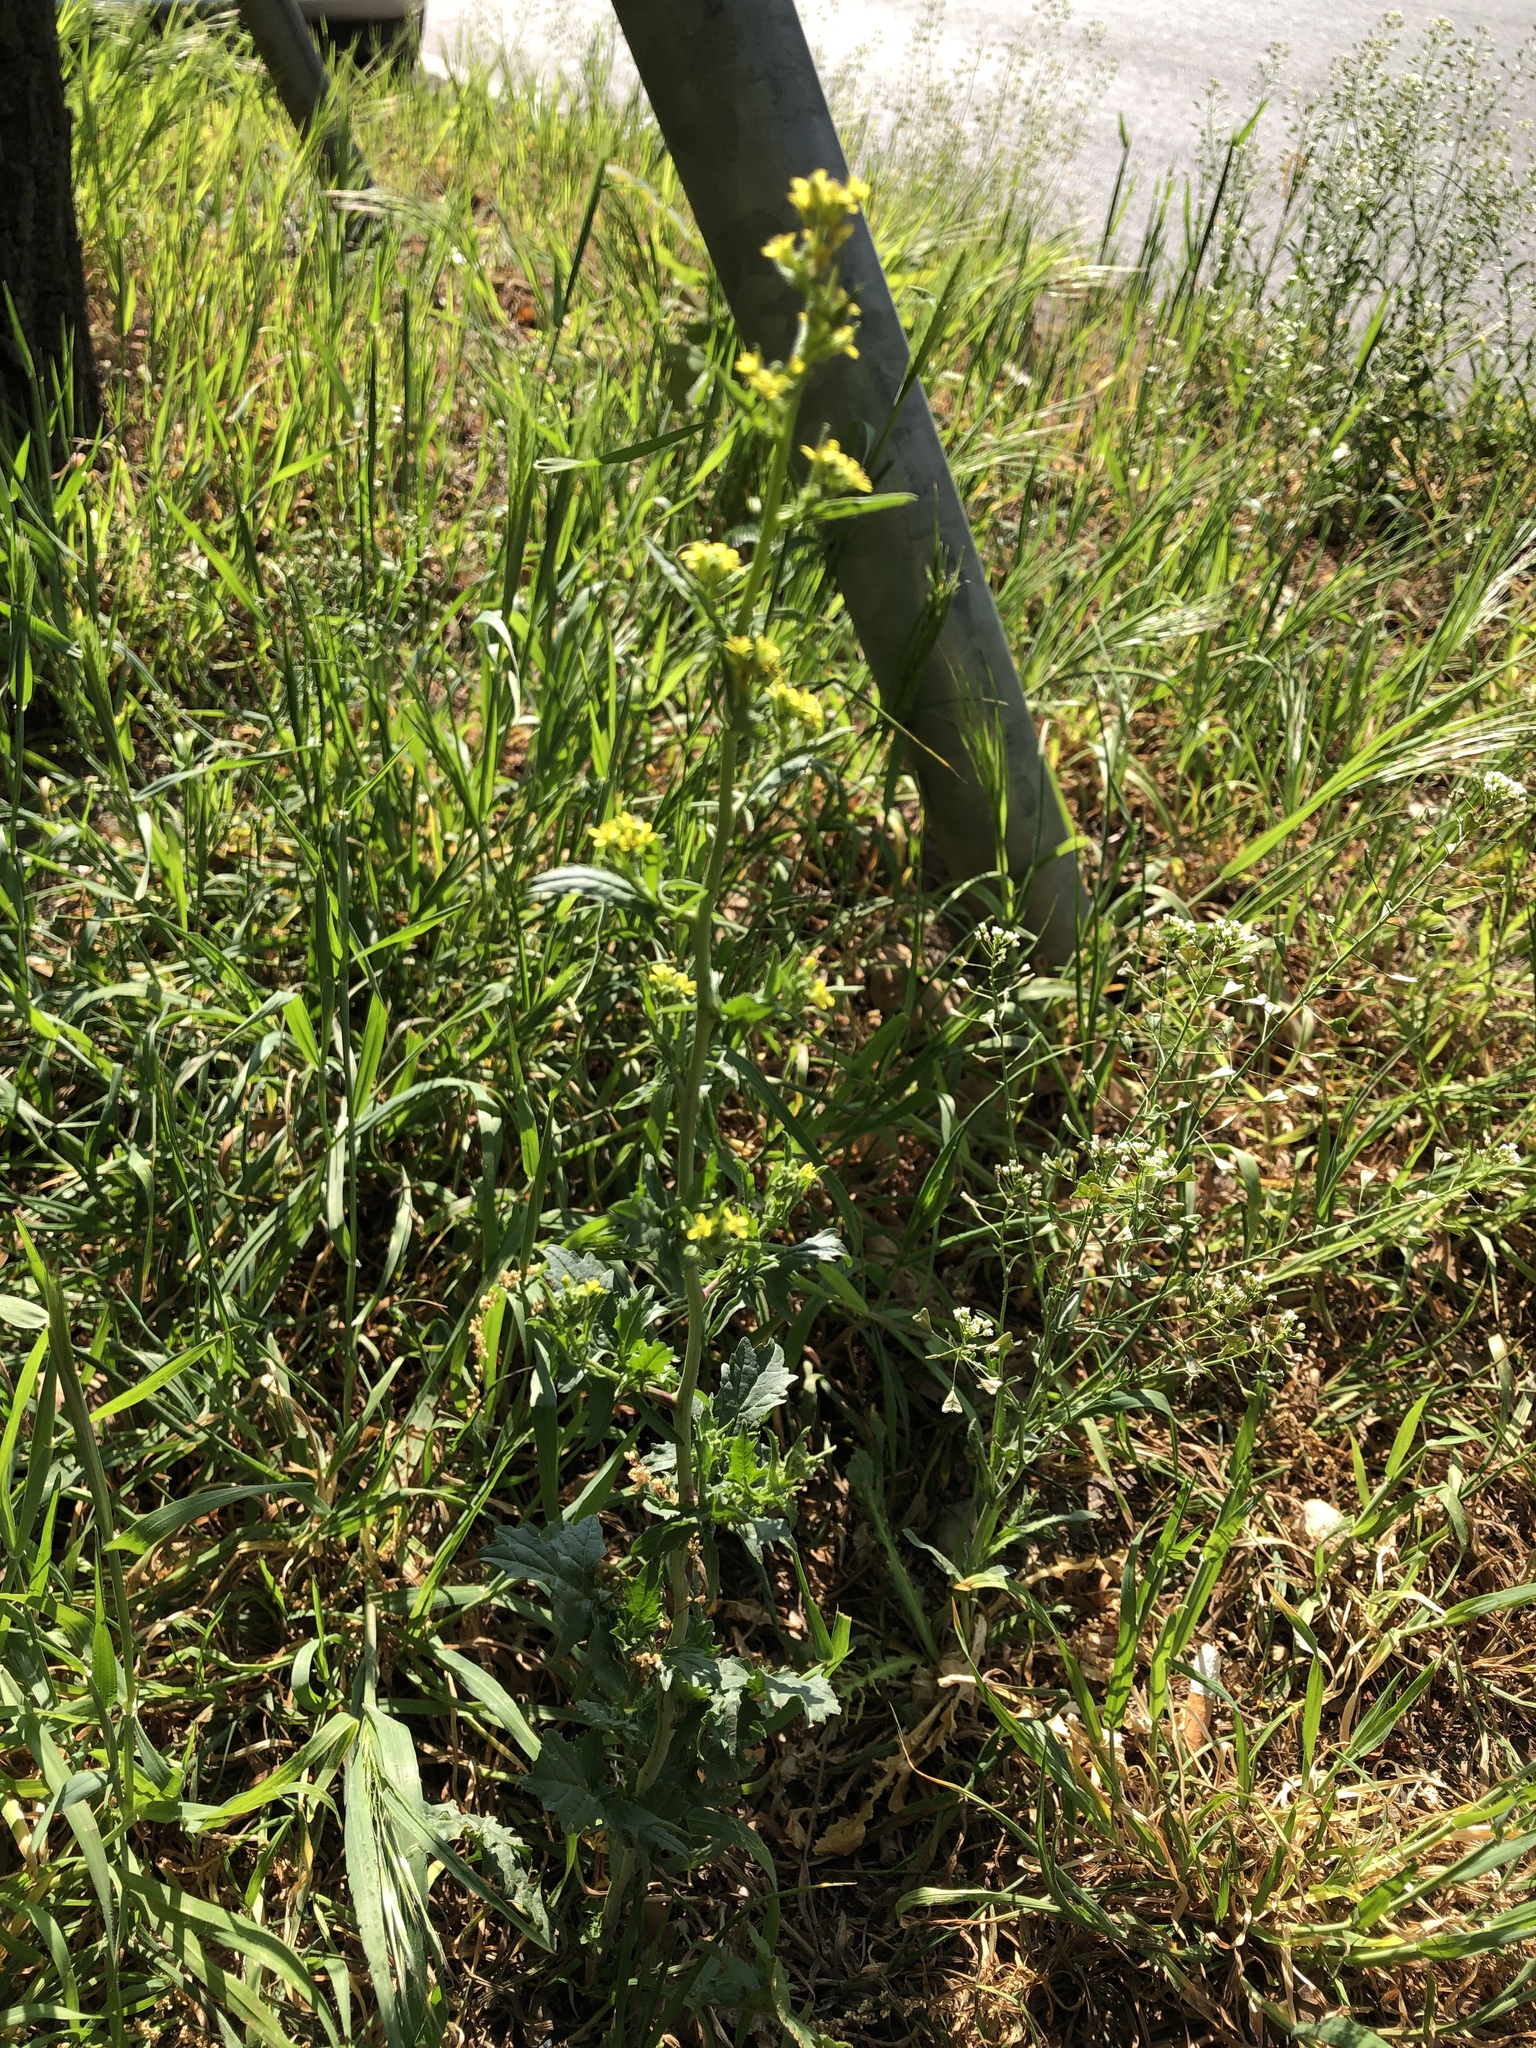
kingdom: Plantae
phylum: Tracheophyta
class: Magnoliopsida
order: Brassicales
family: Brassicaceae
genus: Sisymbrium
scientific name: Sisymbrium officinale
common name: Hedge mustard
